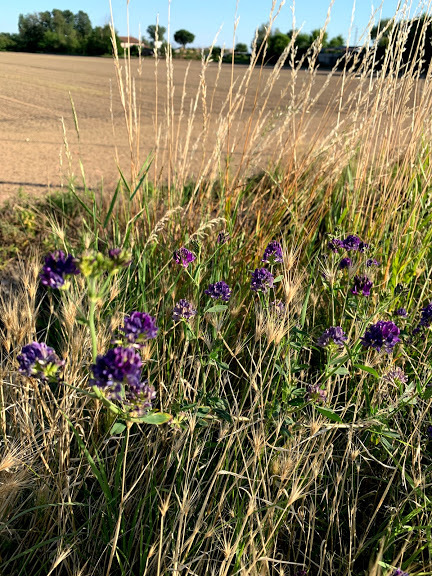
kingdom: Plantae
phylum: Tracheophyta
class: Magnoliopsida
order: Fabales
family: Fabaceae
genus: Medicago
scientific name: Medicago sativa
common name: Alfalfa
